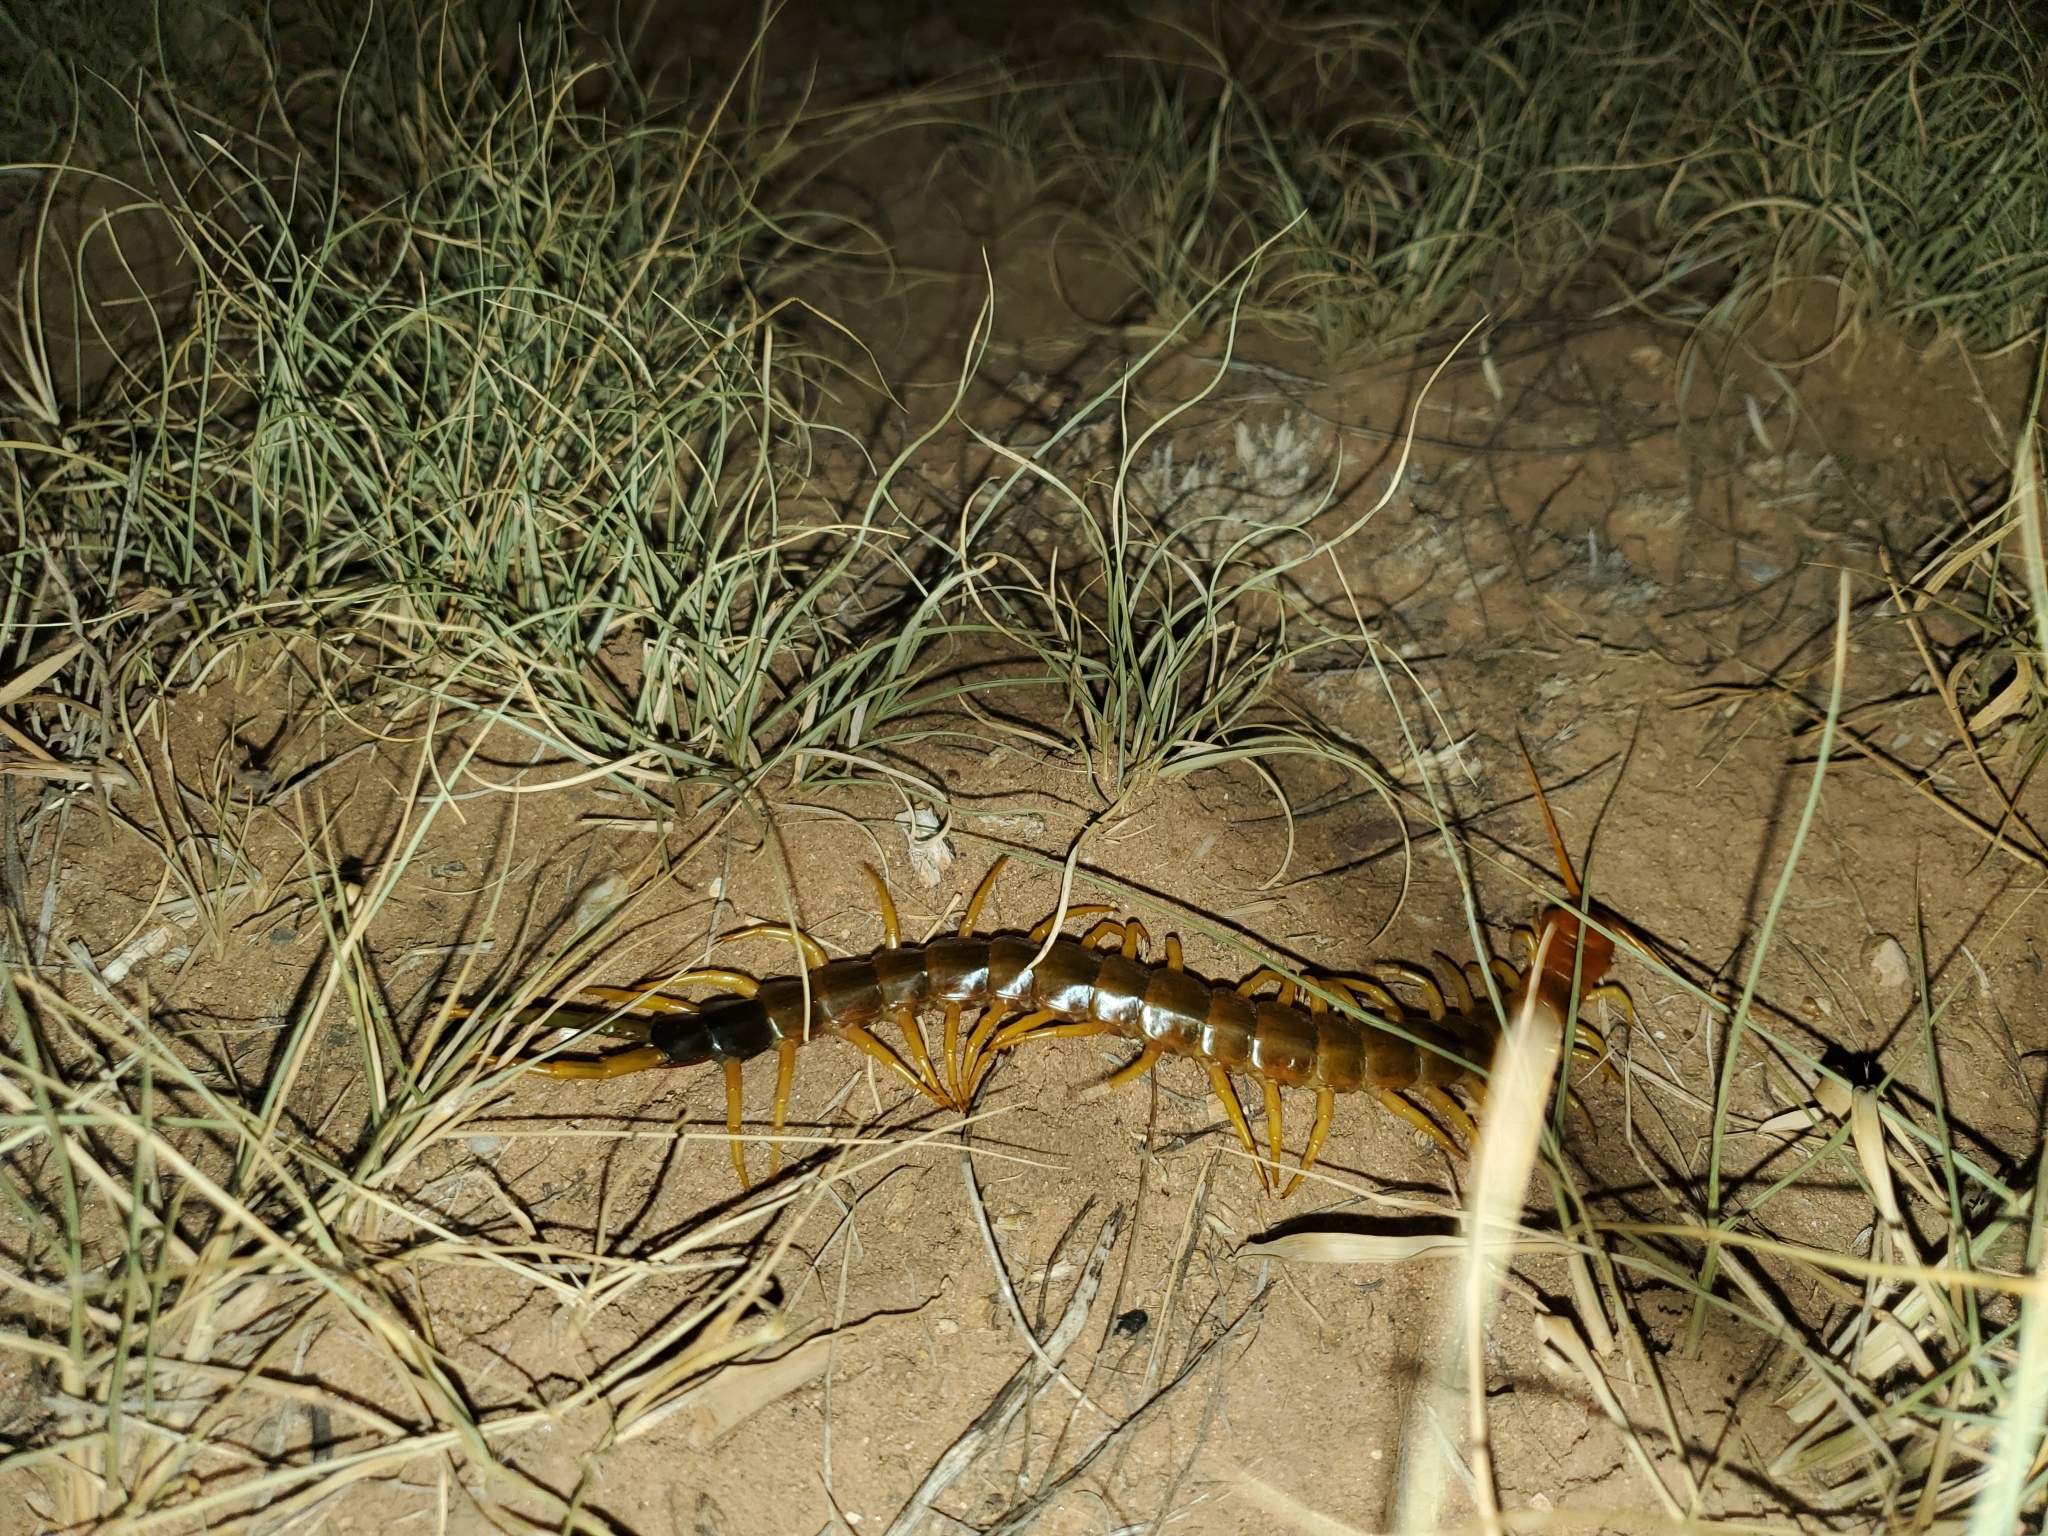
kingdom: Animalia
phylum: Arthropoda
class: Chilopoda
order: Scolopendromorpha
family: Scolopendridae
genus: Scolopendra
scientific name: Scolopendra heros
